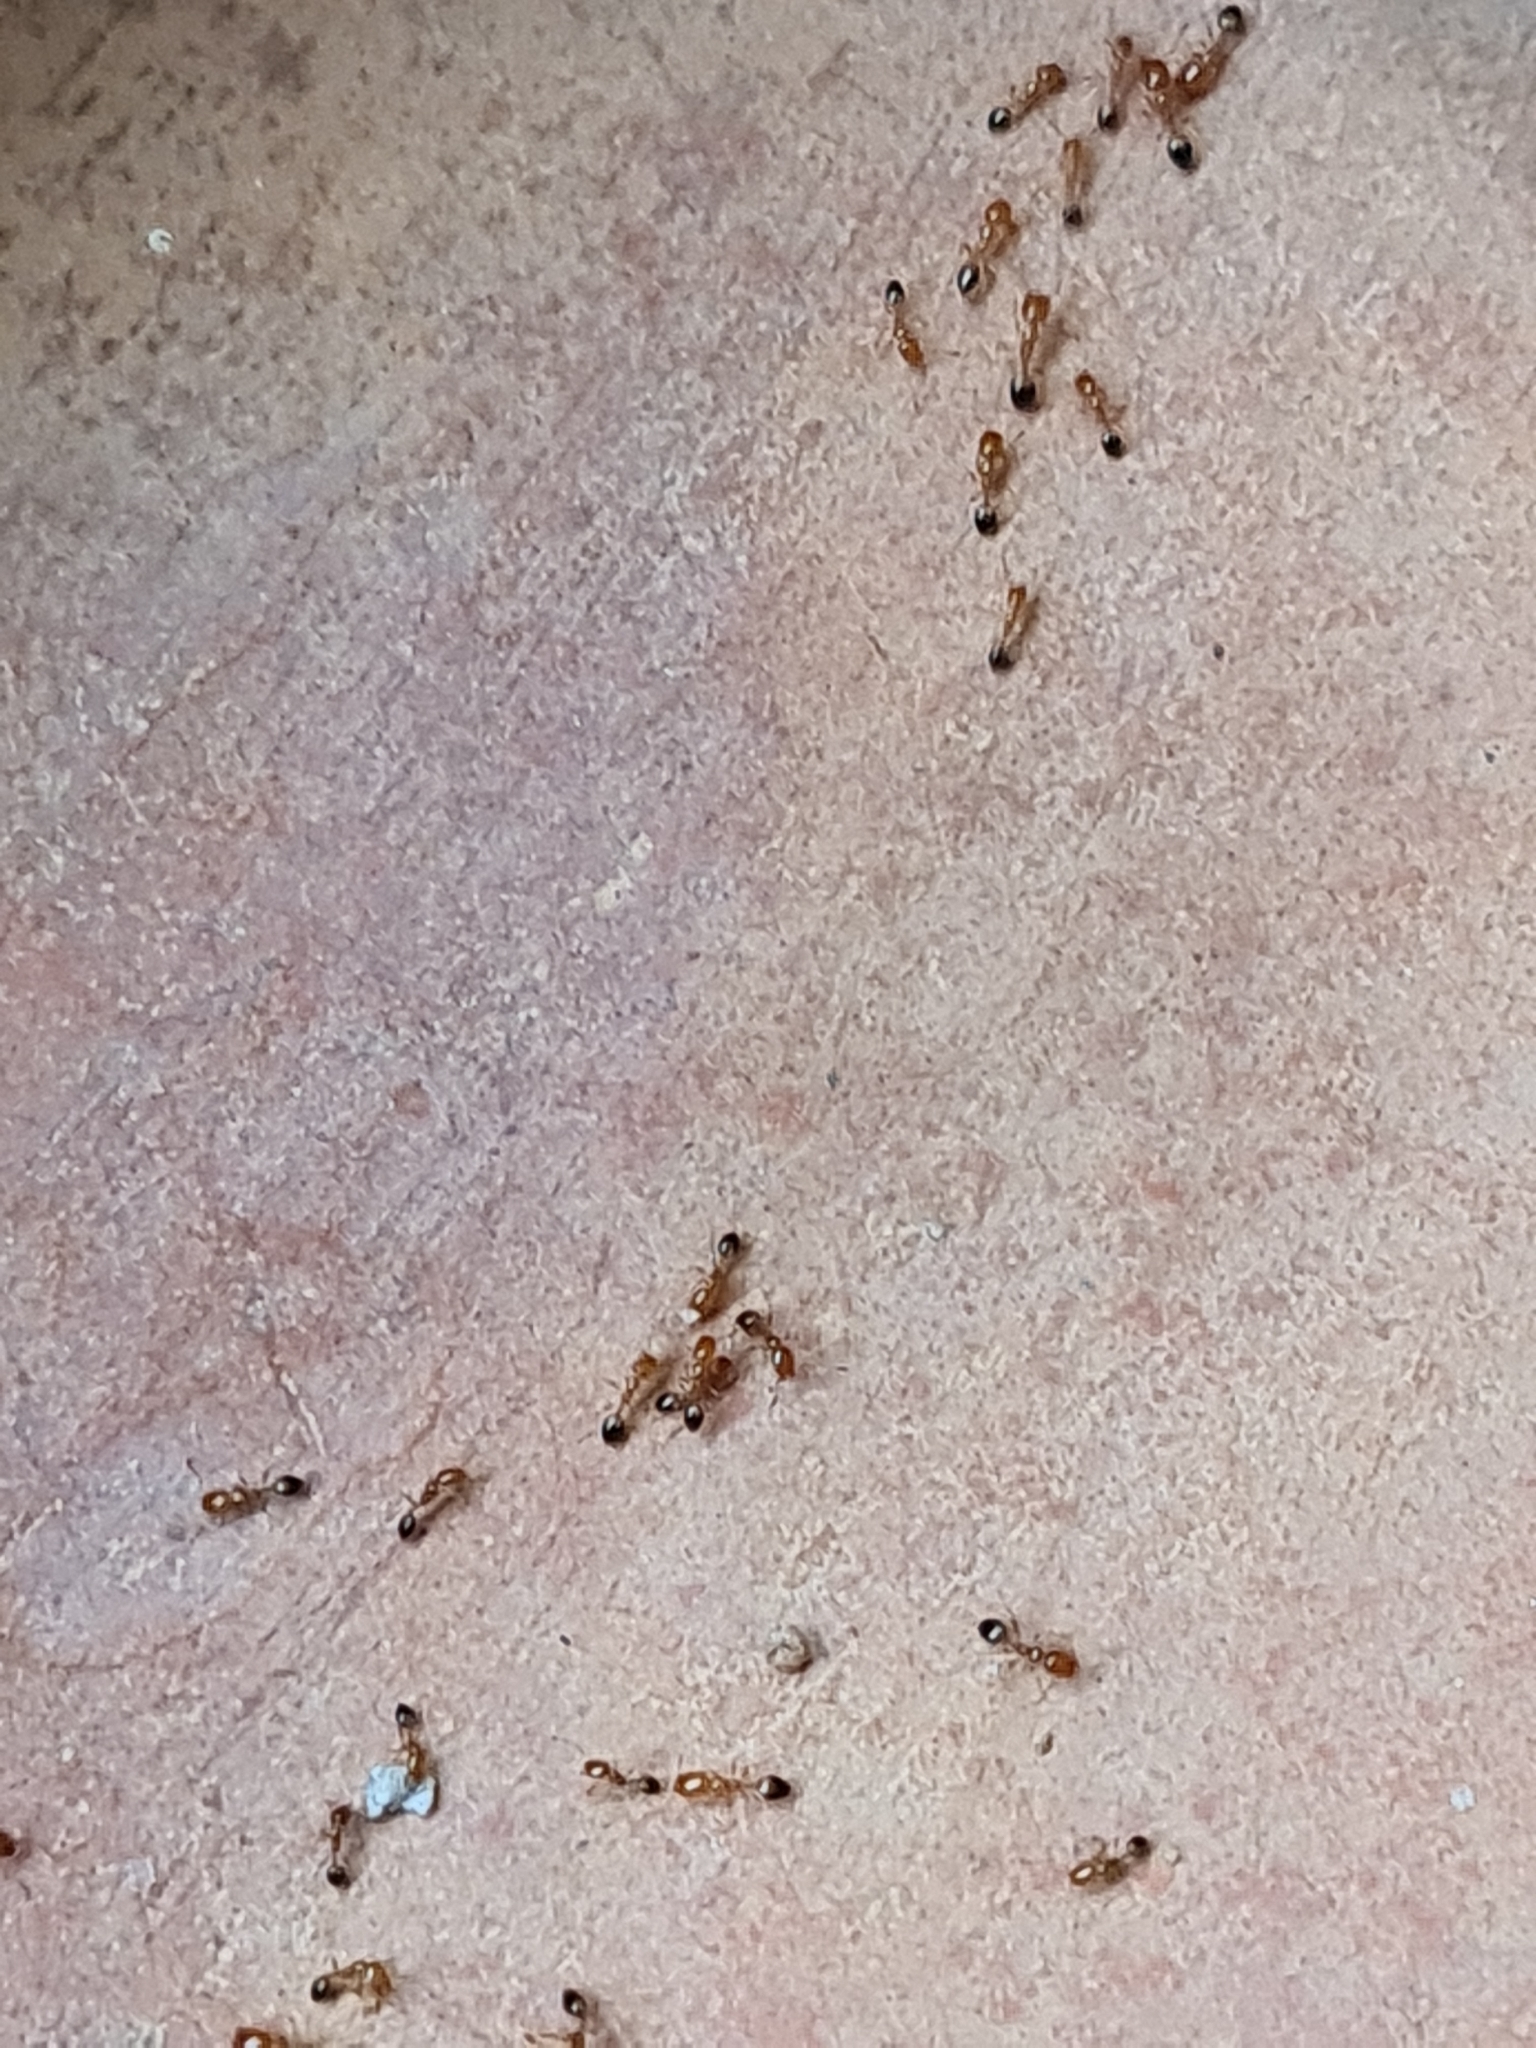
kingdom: Animalia
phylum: Arthropoda
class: Insecta
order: Hymenoptera
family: Formicidae
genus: Monomorium
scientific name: Monomorium destructor
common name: Destructive trailing ant
